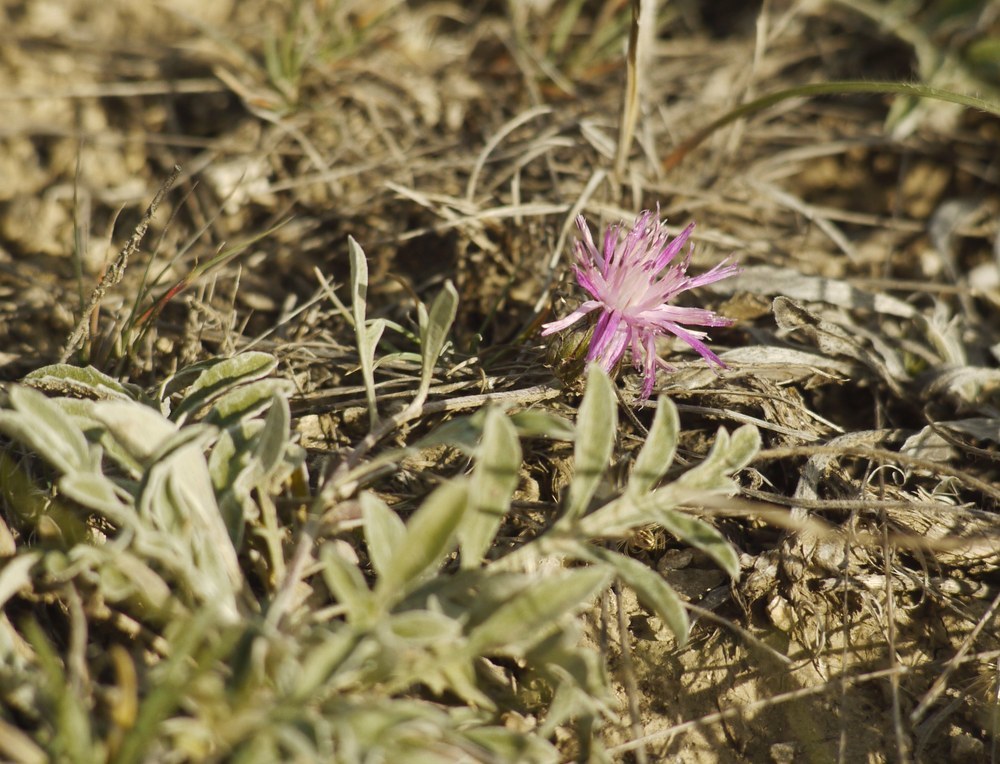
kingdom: Plantae
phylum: Tracheophyta
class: Magnoliopsida
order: Asterales
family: Asteraceae
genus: Psephellus
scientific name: Psephellus marschallianus
